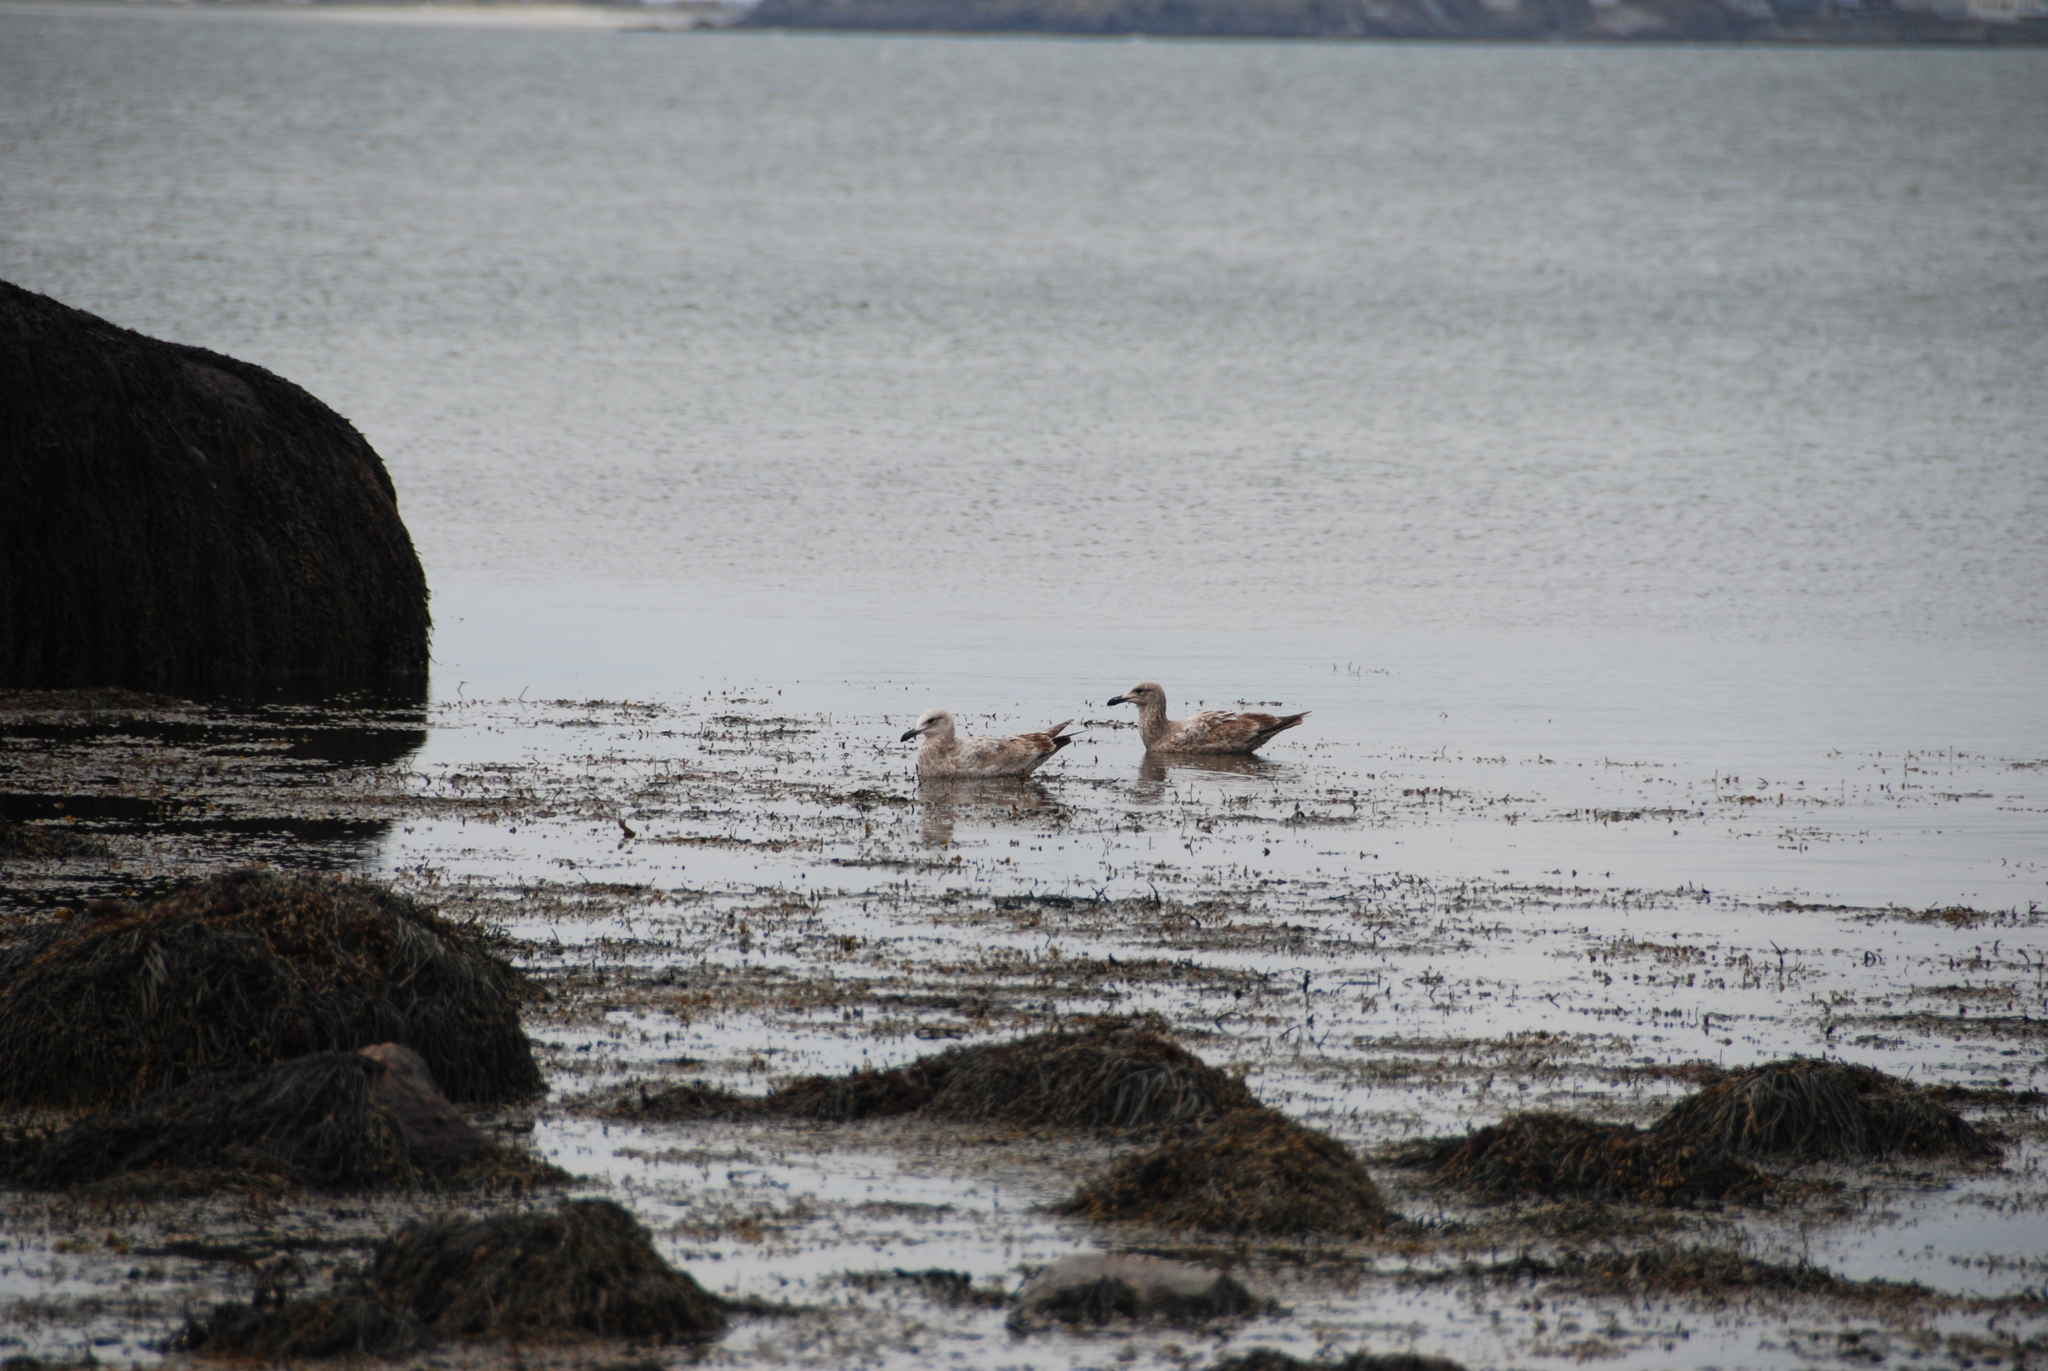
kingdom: Animalia
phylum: Chordata
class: Aves
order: Charadriiformes
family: Laridae
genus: Larus
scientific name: Larus argentatus
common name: Herring gull
